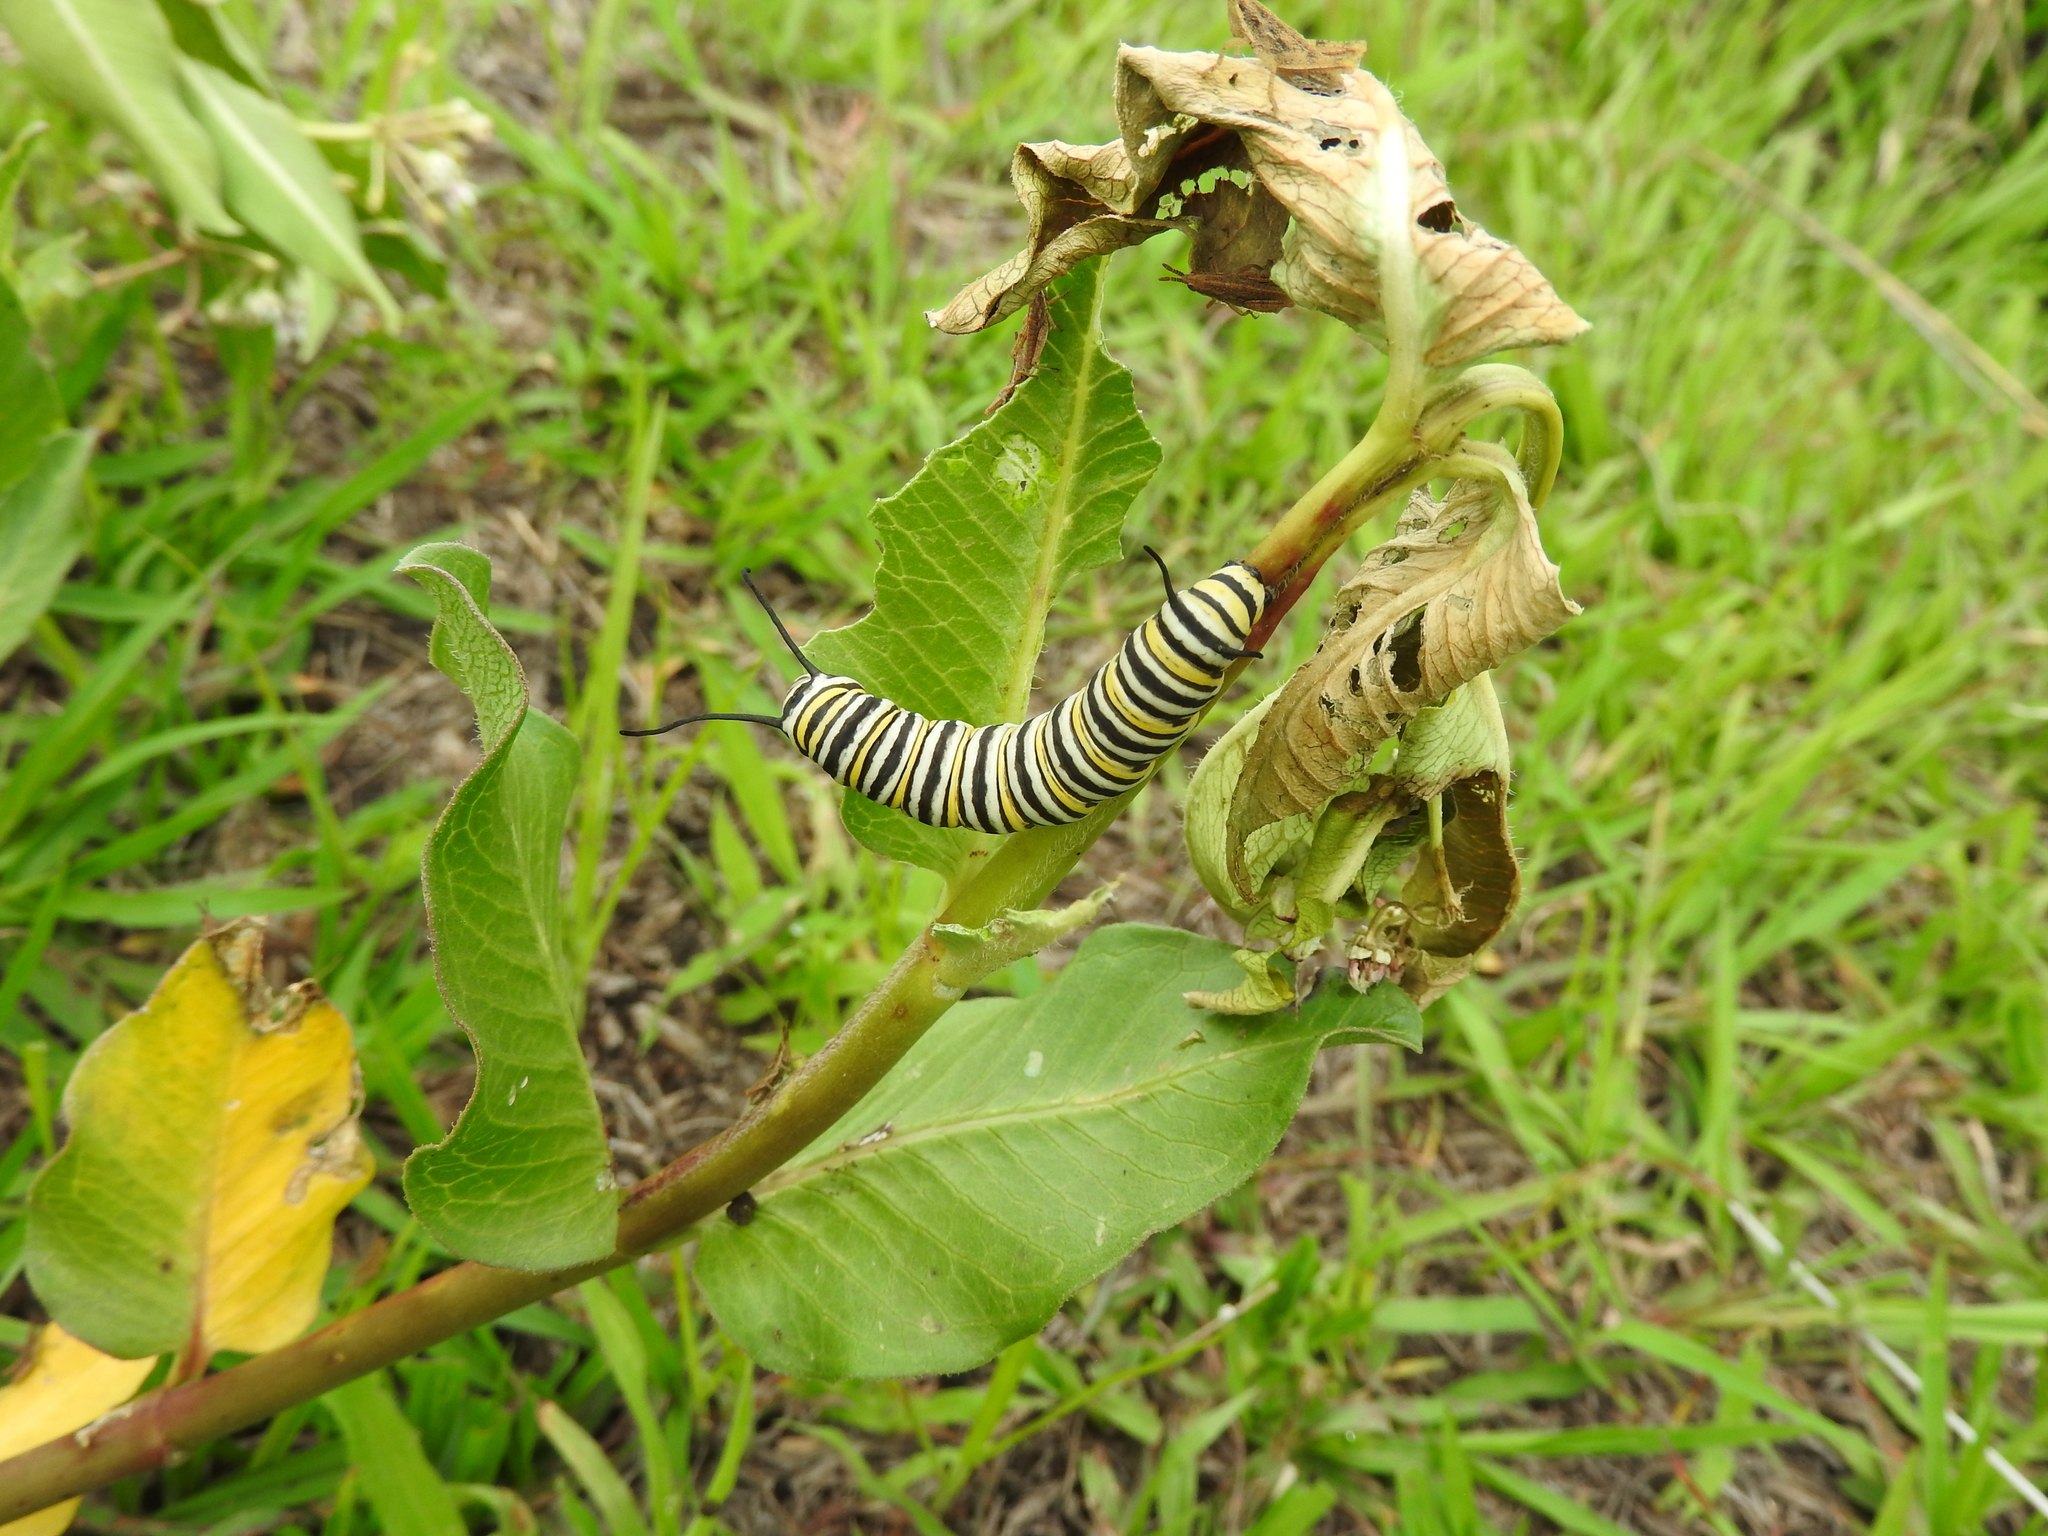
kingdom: Plantae
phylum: Tracheophyta
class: Magnoliopsida
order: Gentianales
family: Apocynaceae
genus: Asclepias
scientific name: Asclepias pratensis
